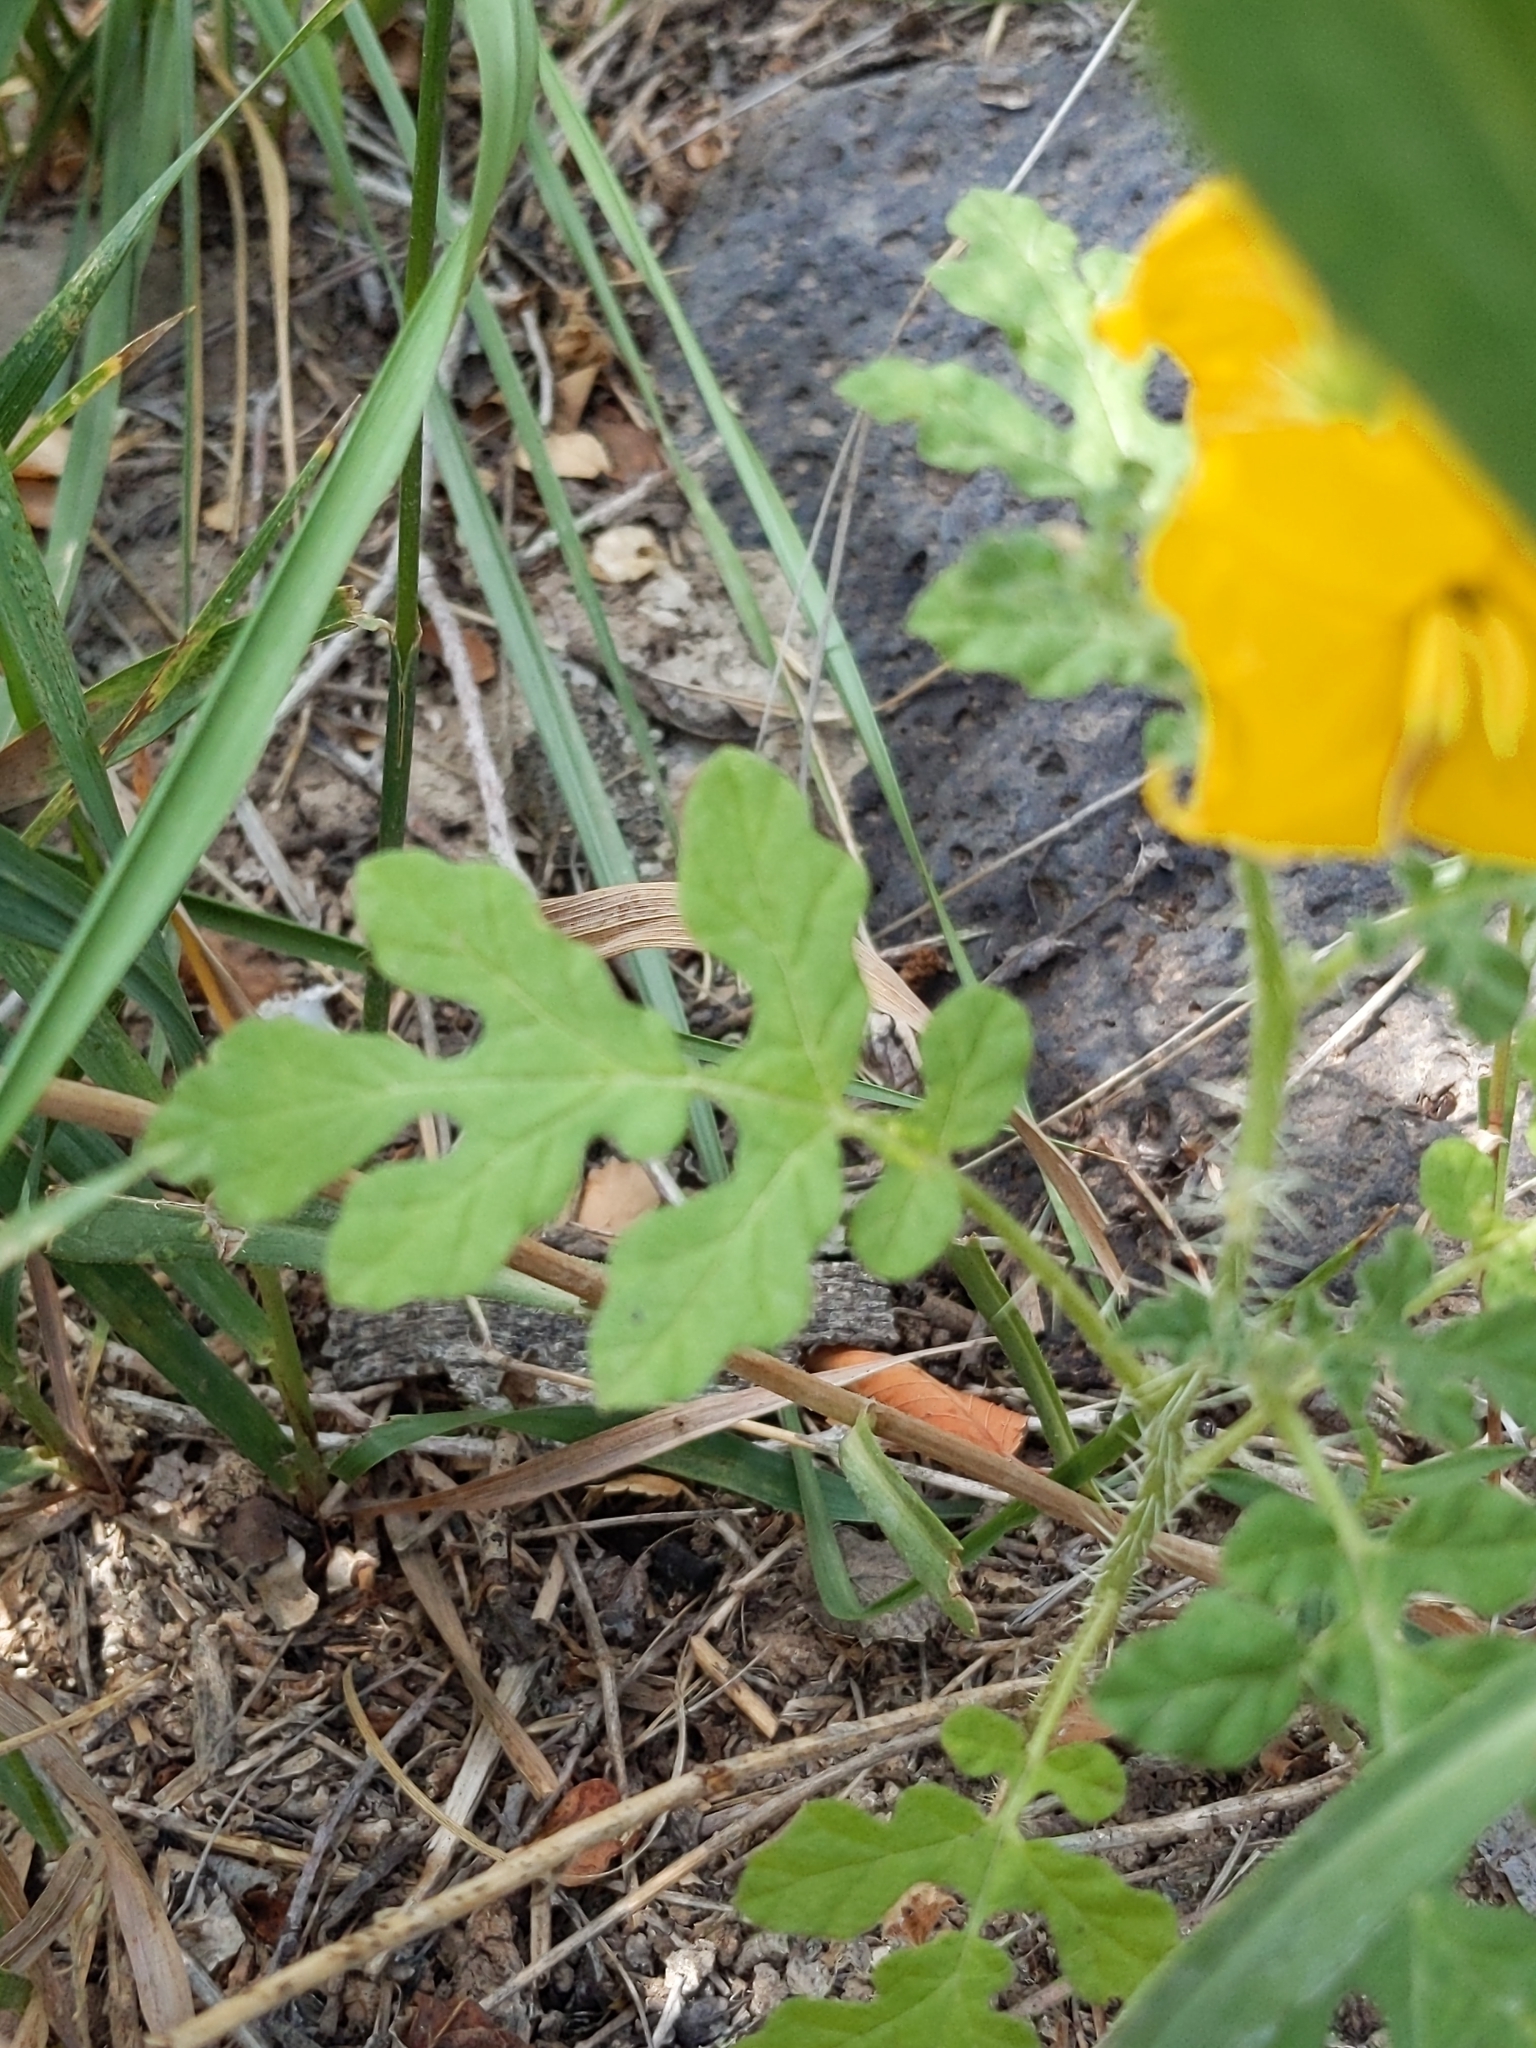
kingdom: Plantae
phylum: Tracheophyta
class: Magnoliopsida
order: Solanales
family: Solanaceae
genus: Solanum
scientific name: Solanum angustifolium
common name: Buffalobur nightshade
